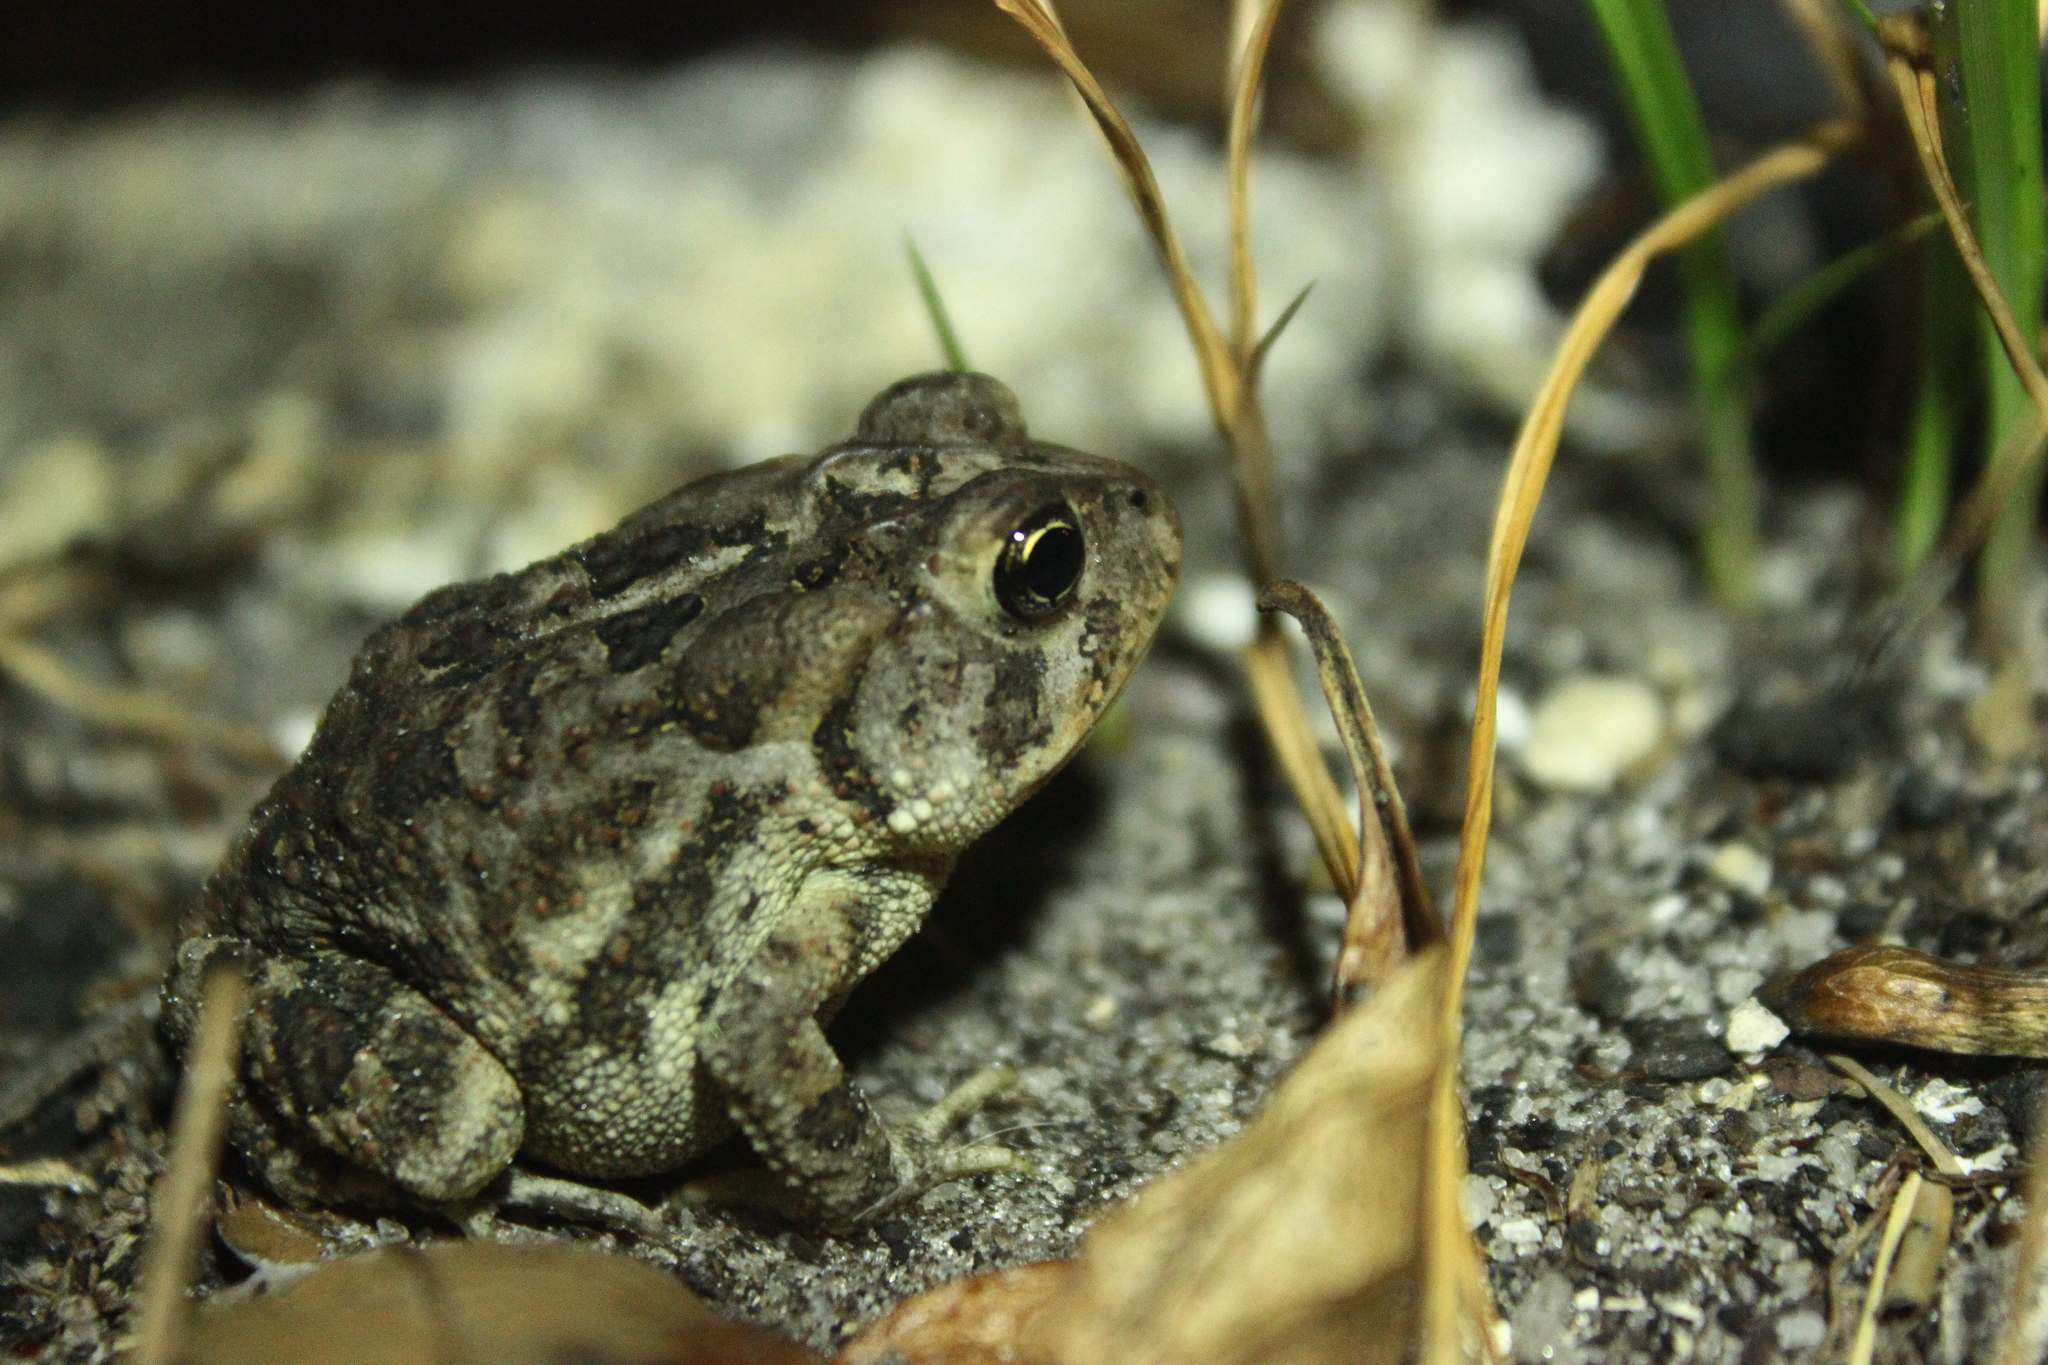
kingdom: Animalia
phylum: Chordata
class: Amphibia
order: Anura
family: Bufonidae
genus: Anaxyrus
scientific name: Anaxyrus terrestris
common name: Southern toad
